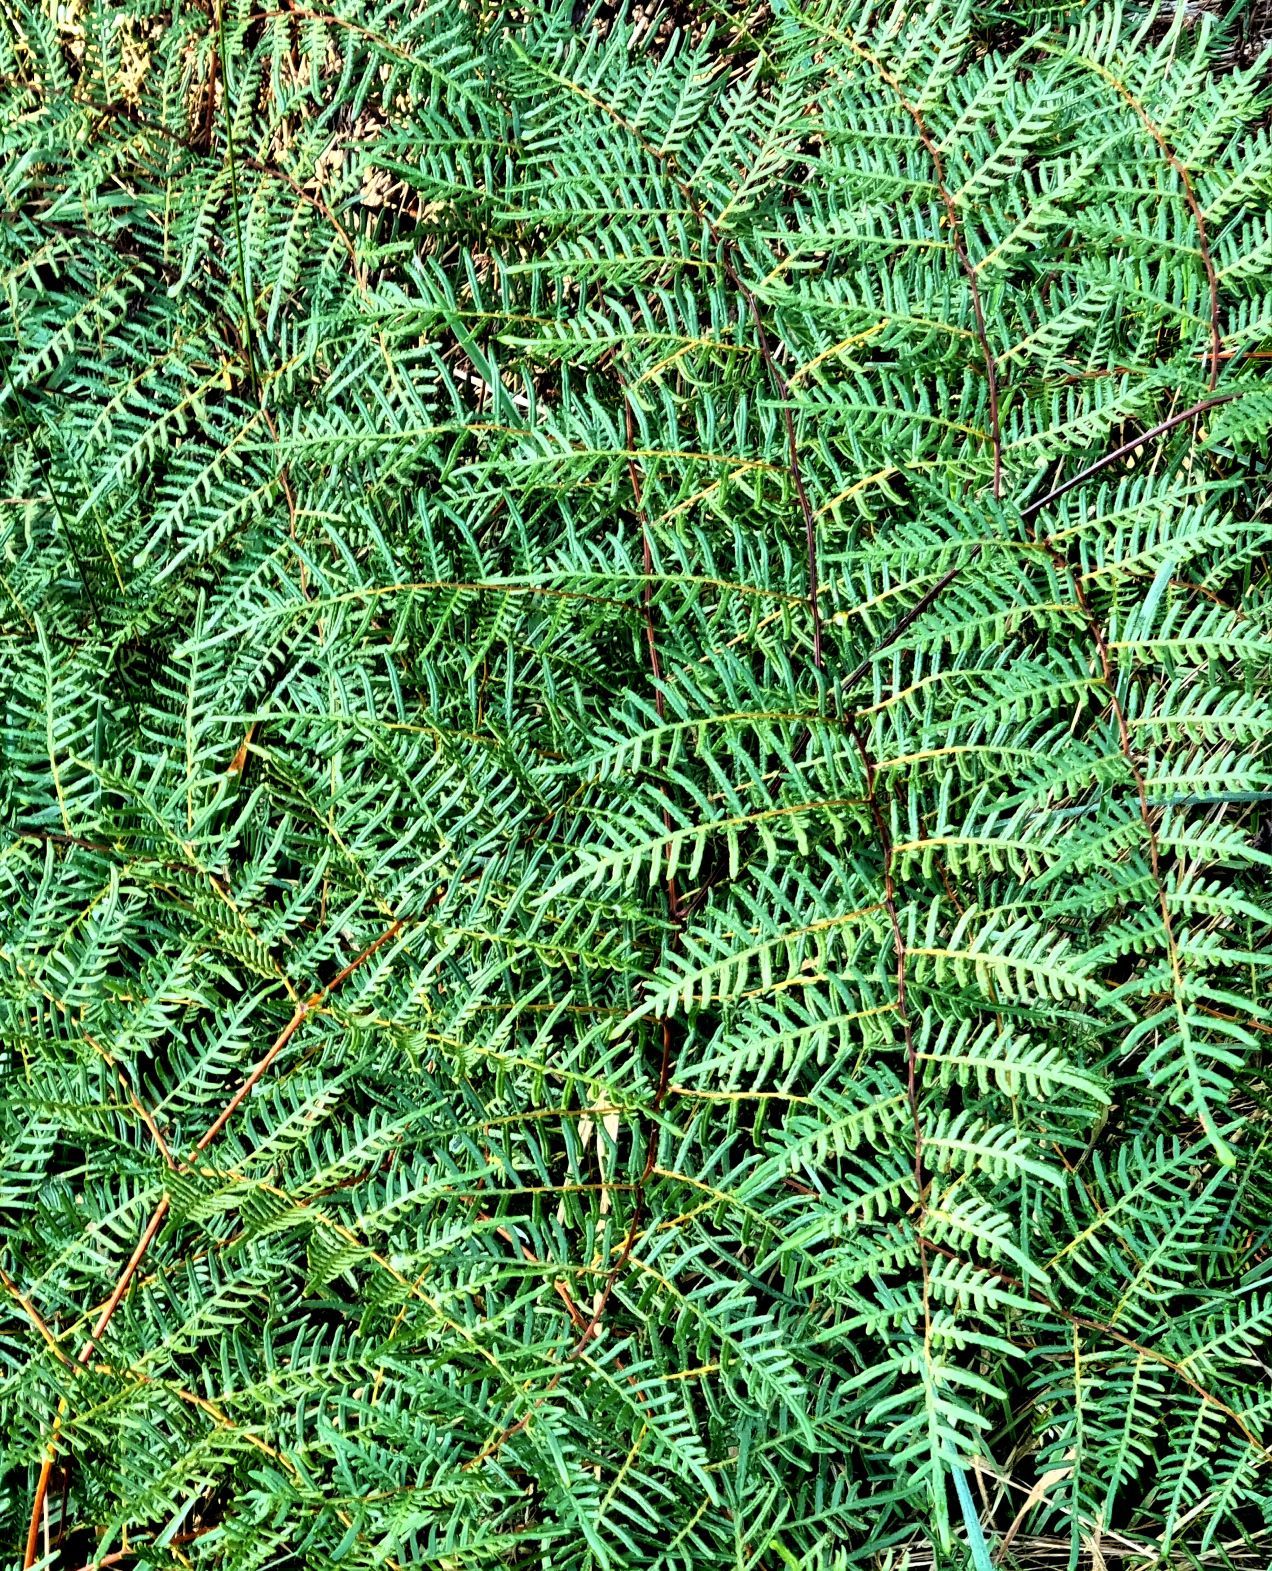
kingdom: Plantae
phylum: Tracheophyta
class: Polypodiopsida
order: Polypodiales
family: Dennstaedtiaceae
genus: Pteridium
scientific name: Pteridium esculentum
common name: Bracken fern
